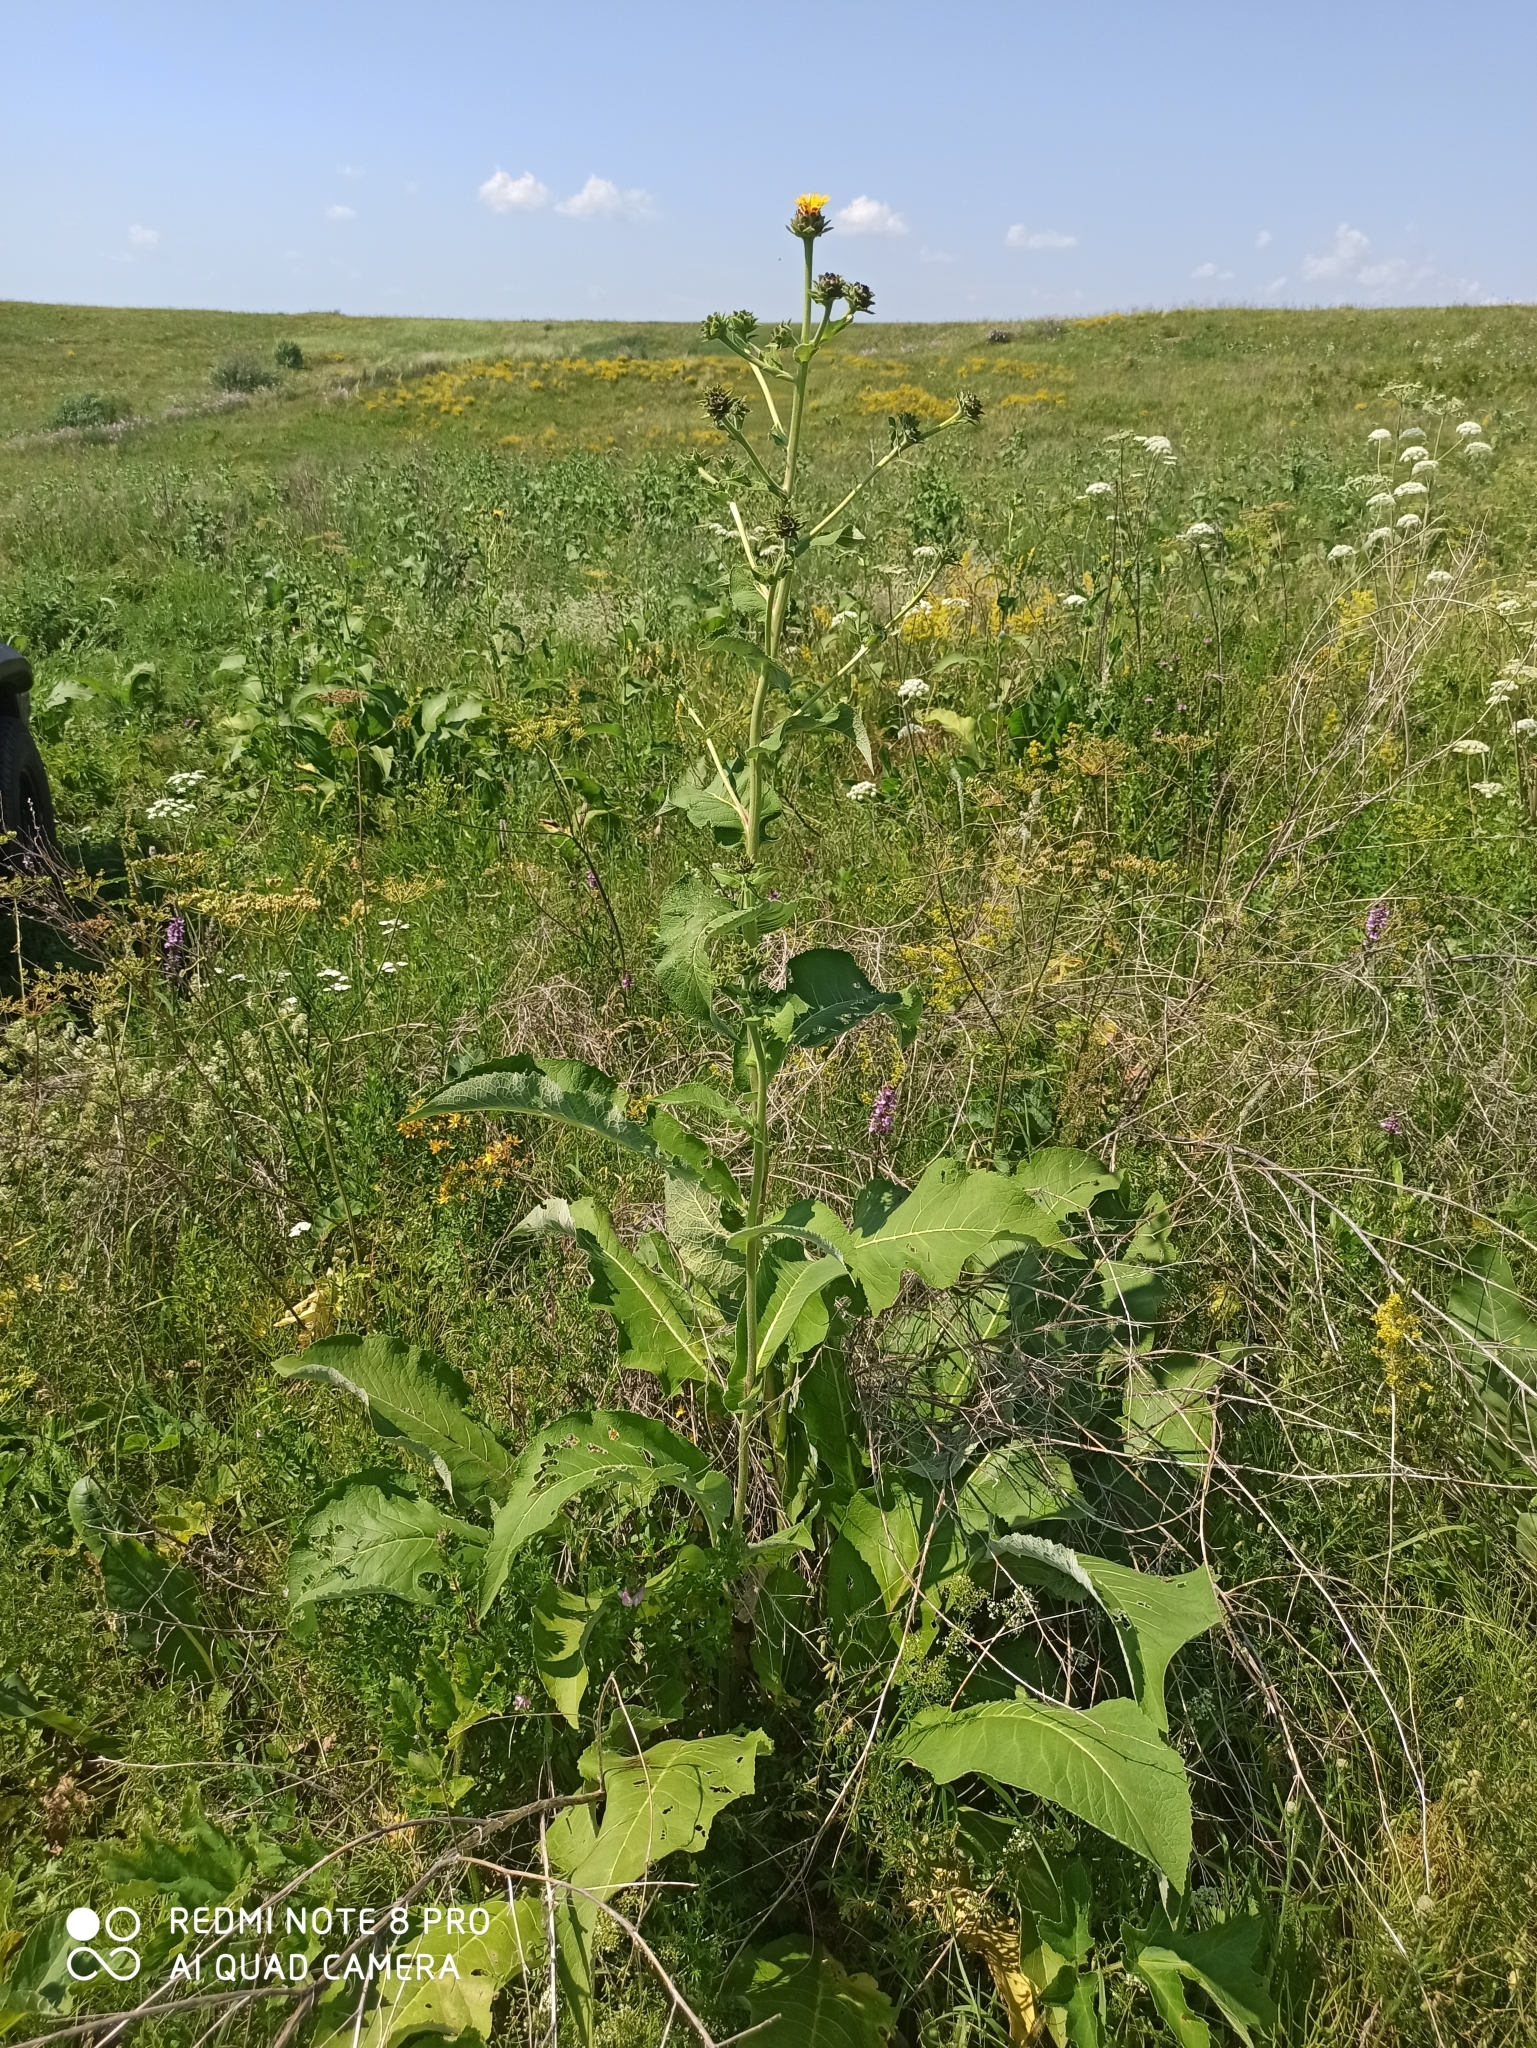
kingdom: Plantae
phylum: Tracheophyta
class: Magnoliopsida
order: Asterales
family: Asteraceae
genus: Inula
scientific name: Inula helenium
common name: Elecampane
